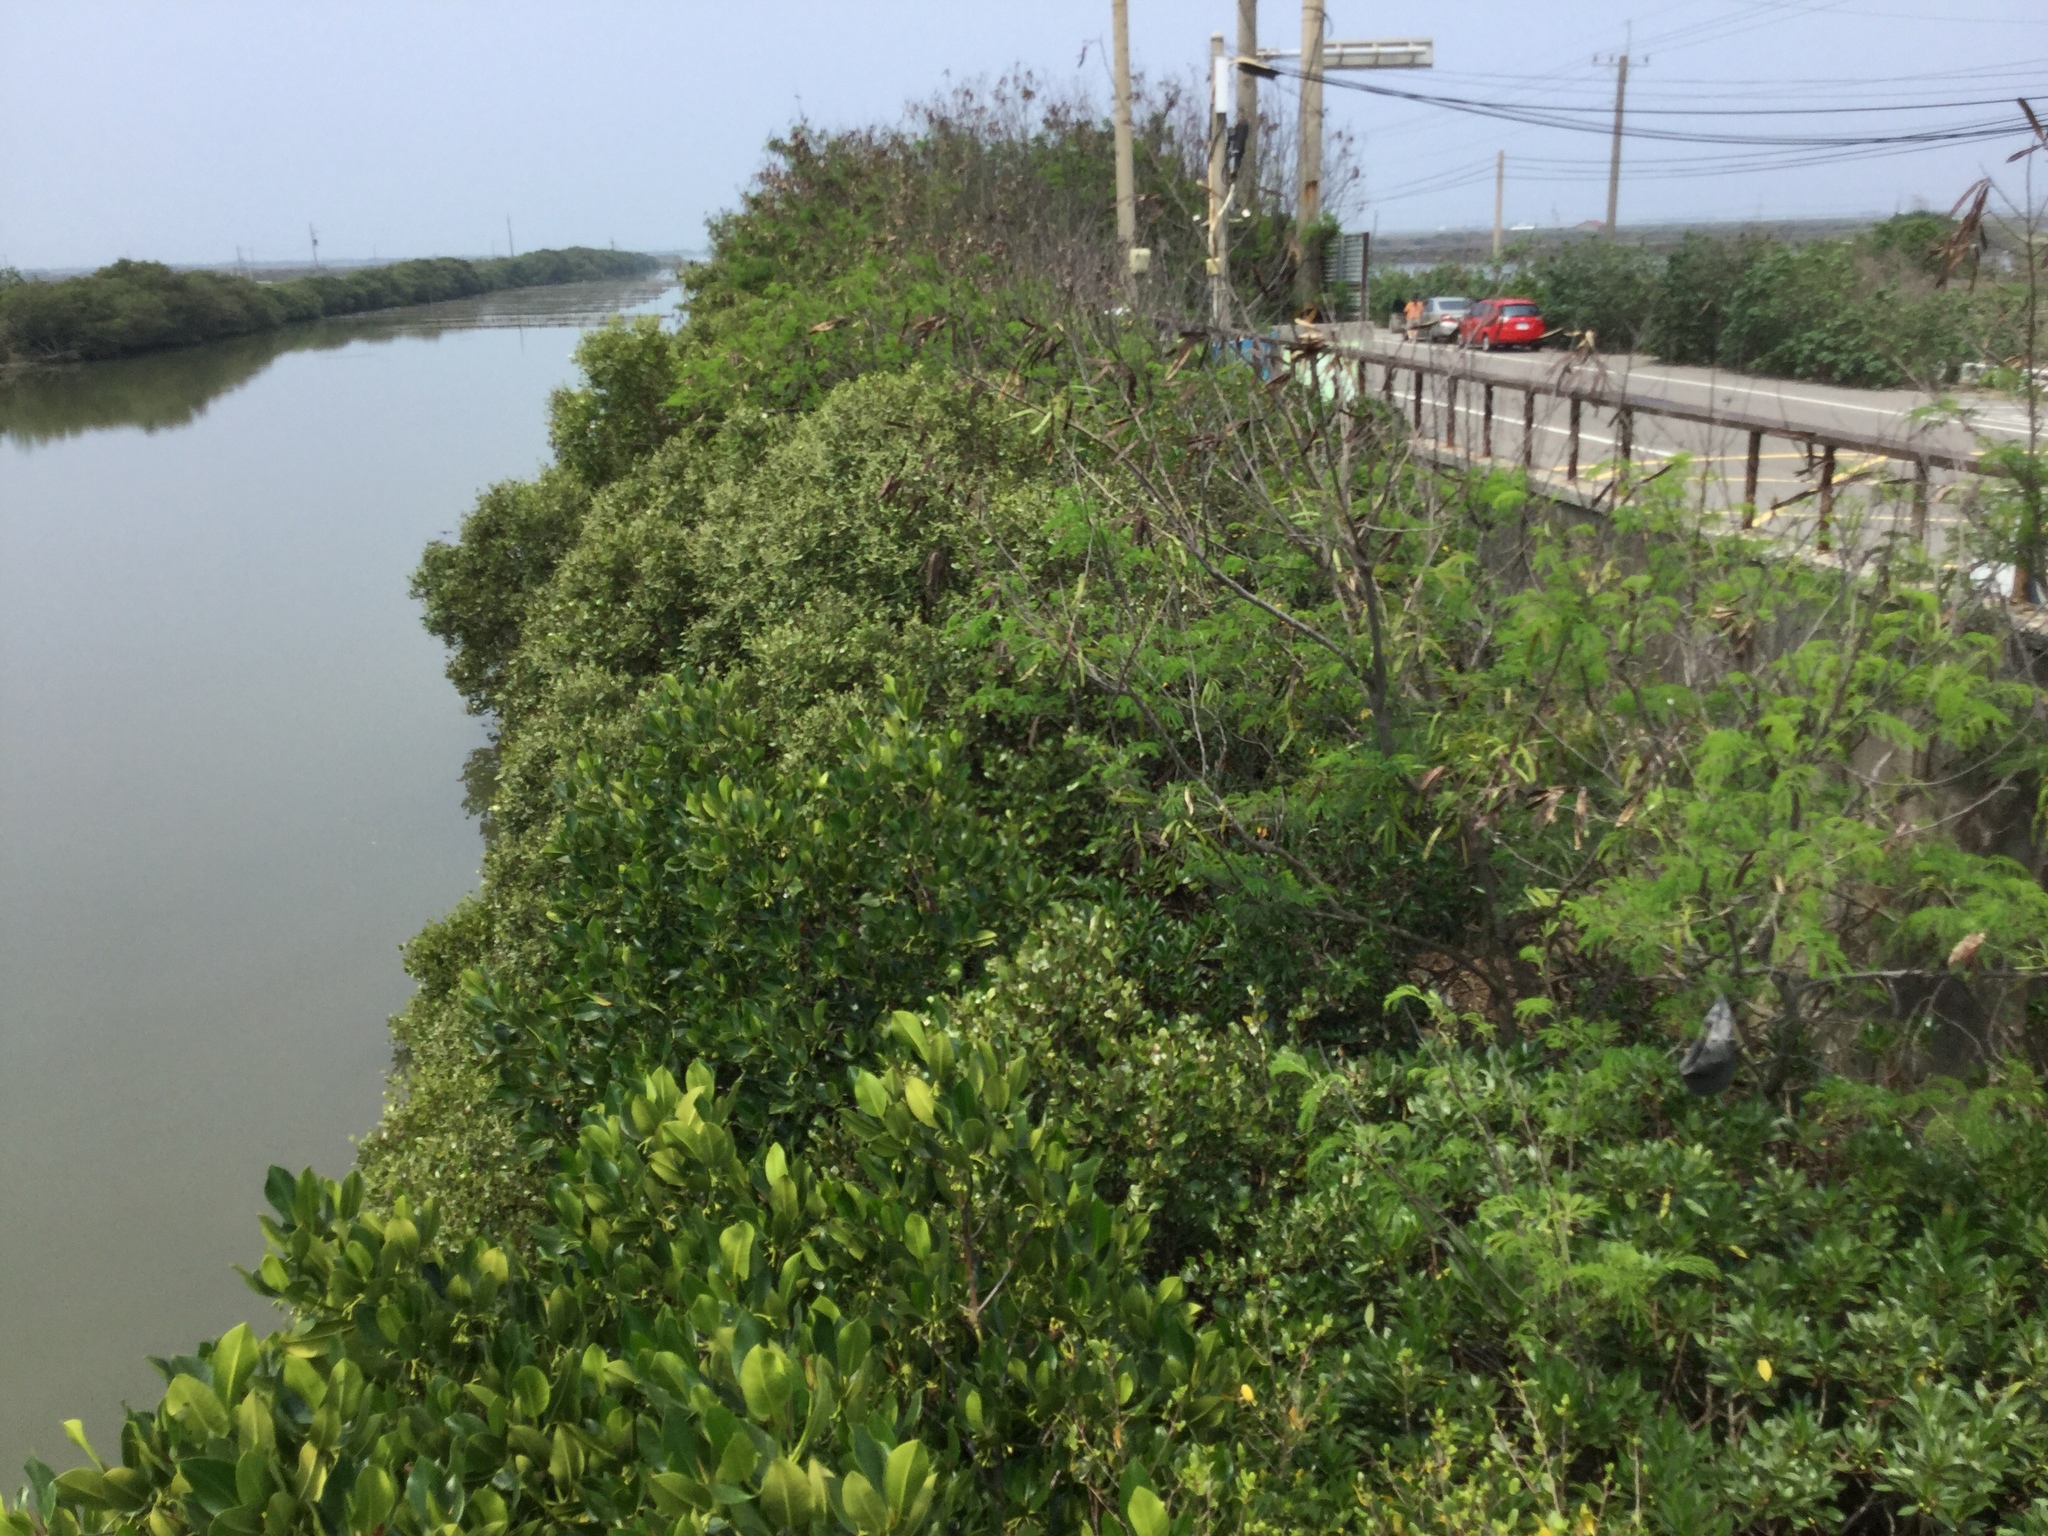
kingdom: Plantae
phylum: Tracheophyta
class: Magnoliopsida
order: Lamiales
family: Acanthaceae
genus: Avicennia
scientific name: Avicennia marina
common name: Gray mangrove
